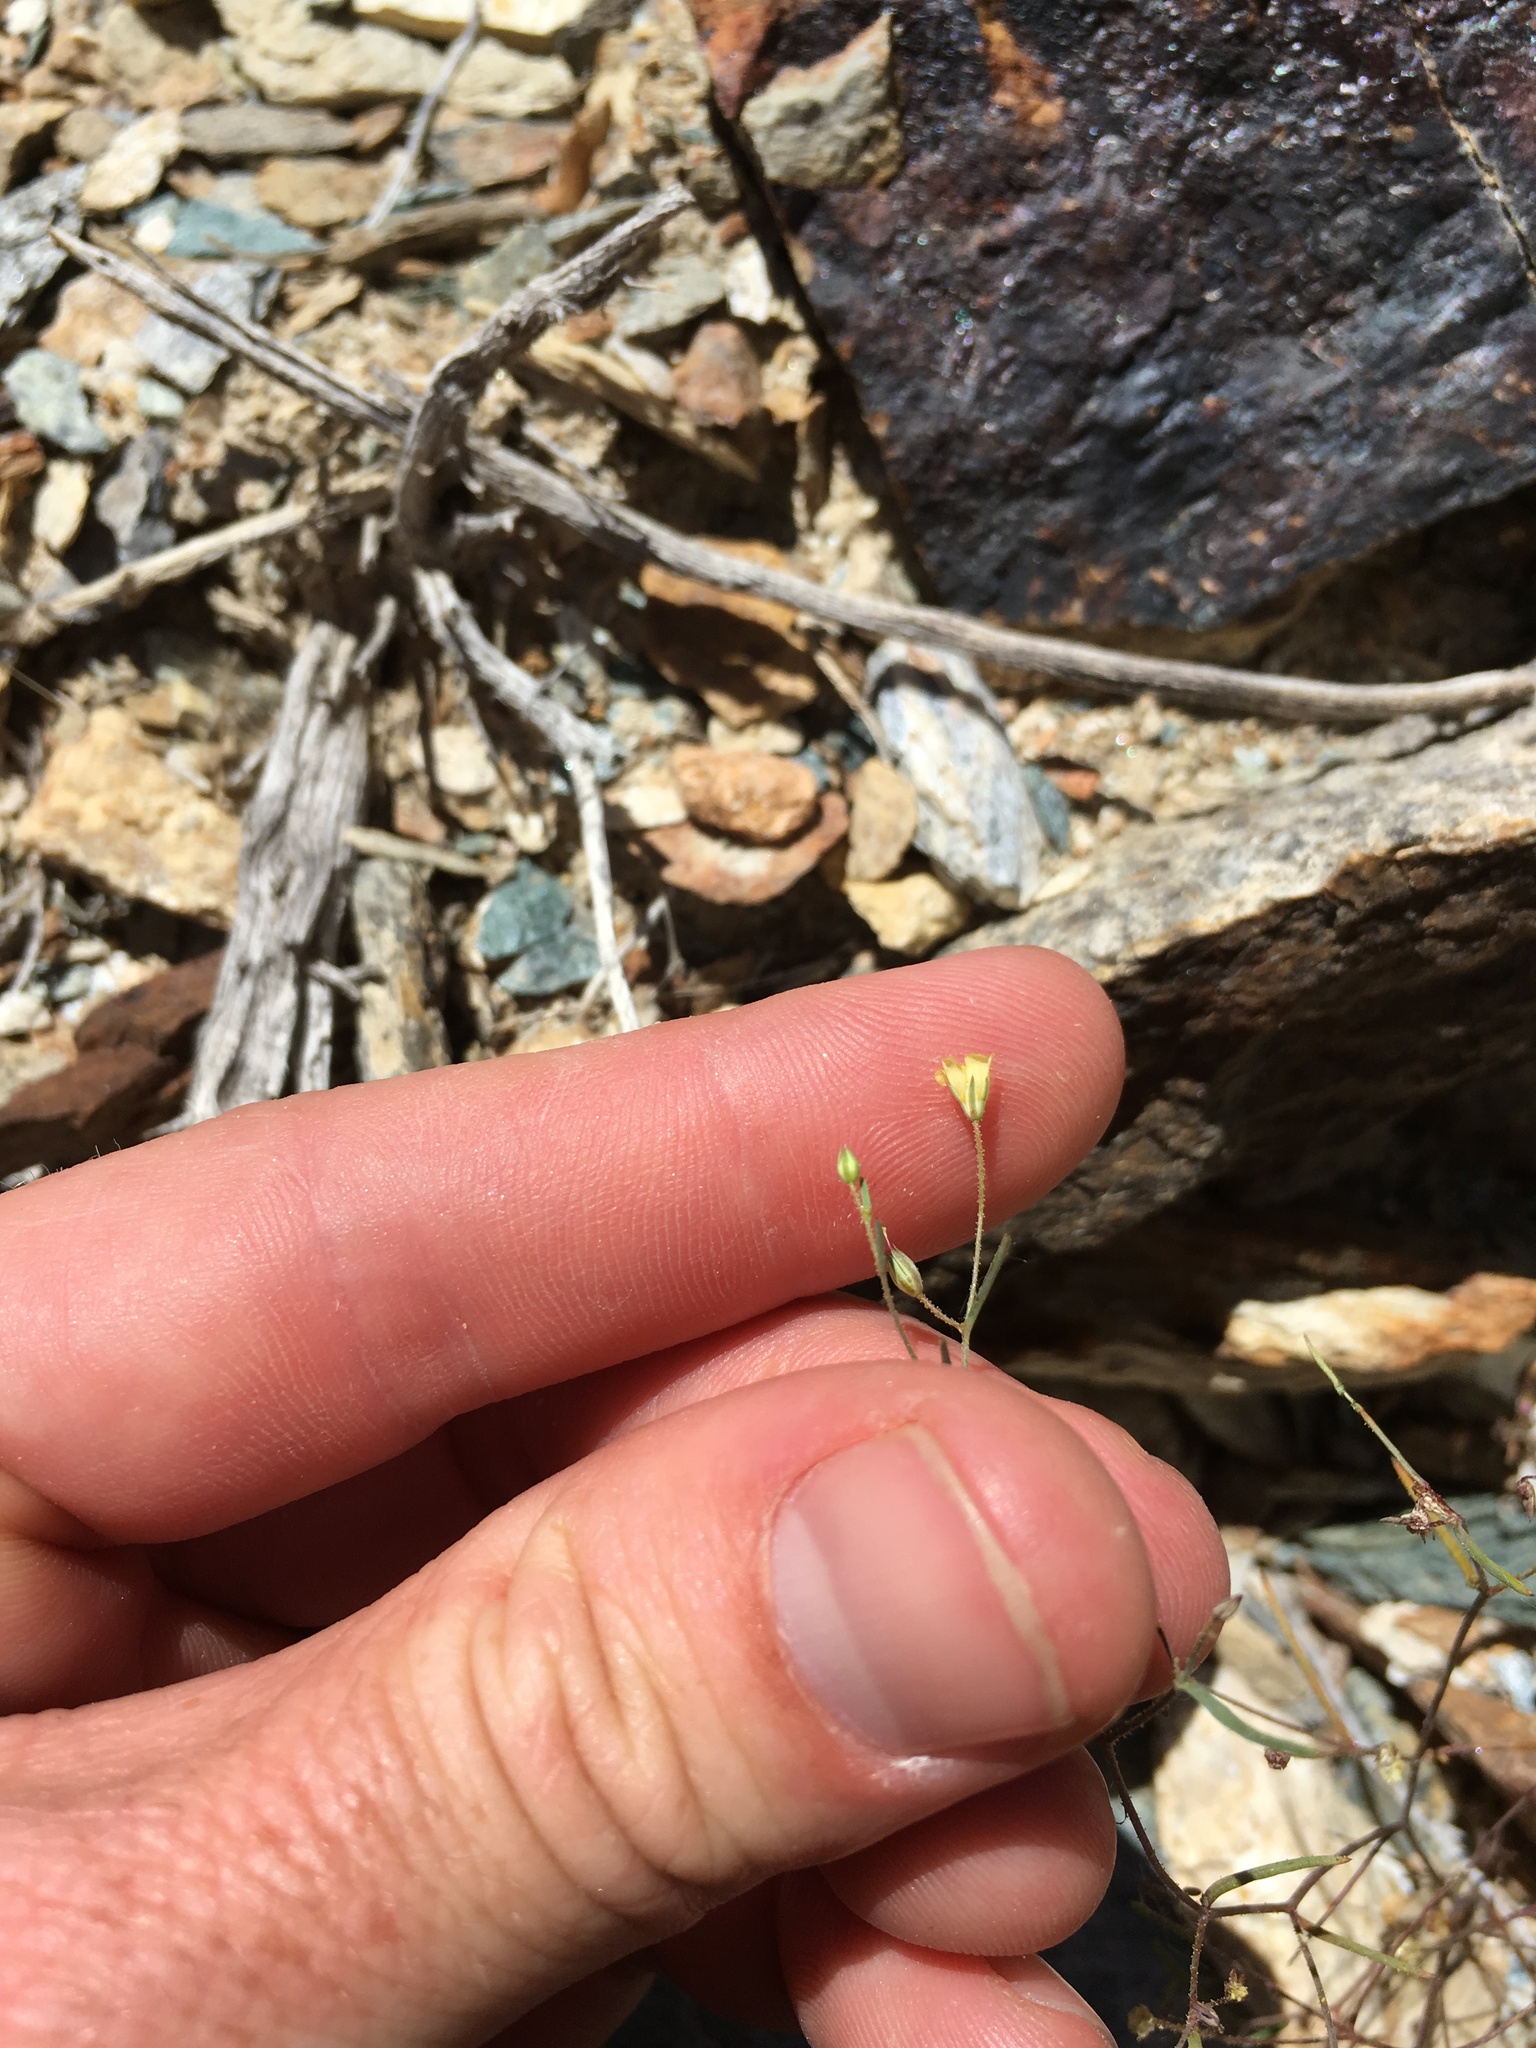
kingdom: Plantae
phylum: Tracheophyta
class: Magnoliopsida
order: Ericales
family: Polemoniaceae
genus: Linanthus
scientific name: Linanthus filiformis
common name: Yellow gilia
